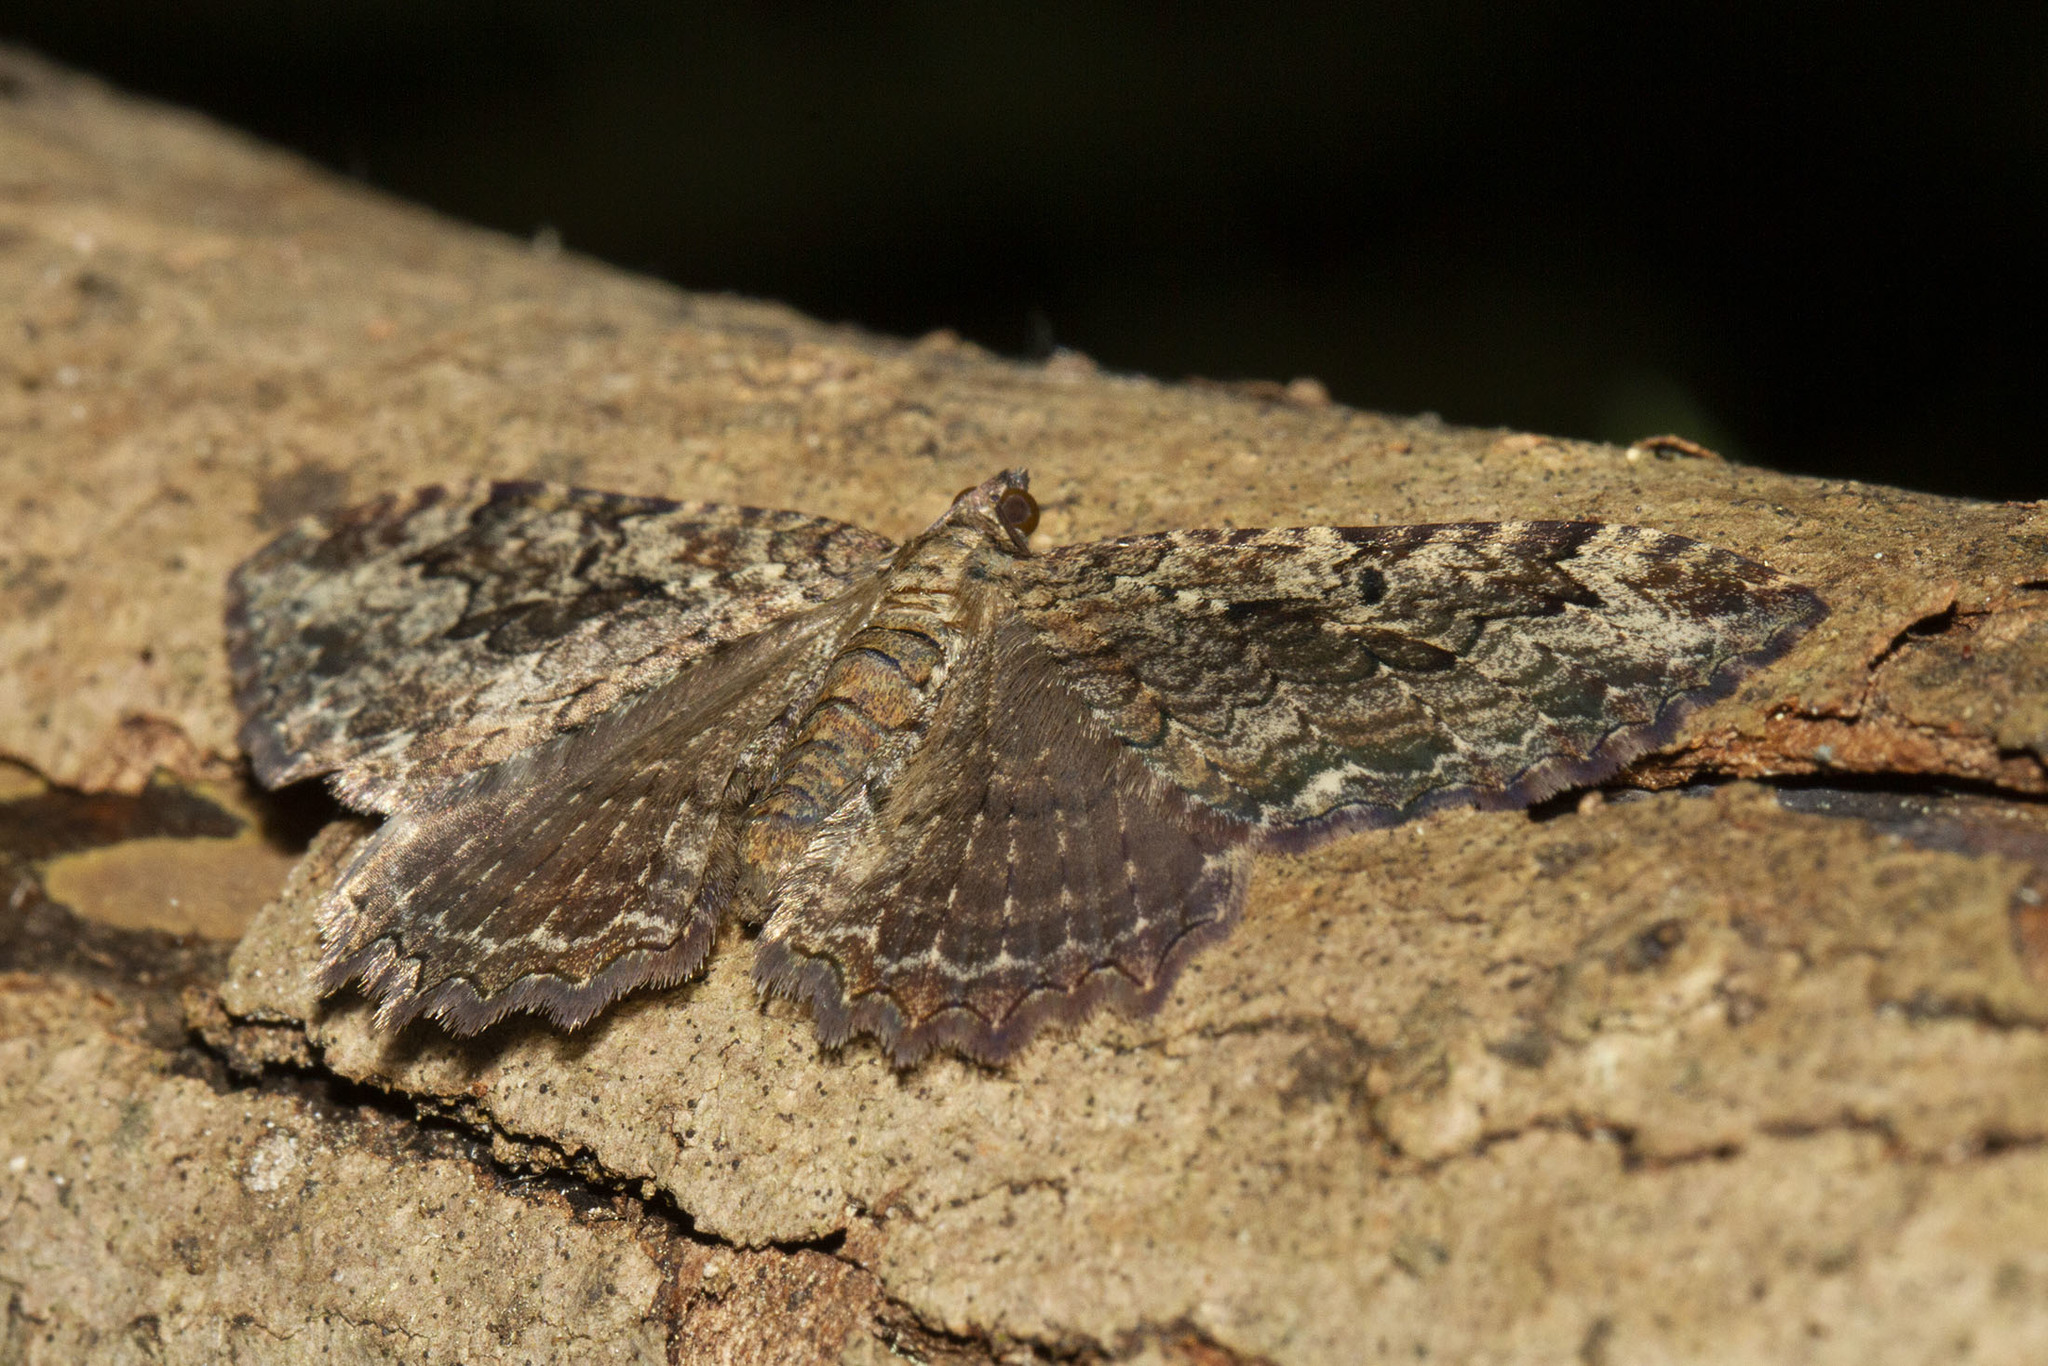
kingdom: Animalia
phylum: Arthropoda
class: Insecta
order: Lepidoptera
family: Geometridae
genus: Rheumaptera
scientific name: Rheumaptera
